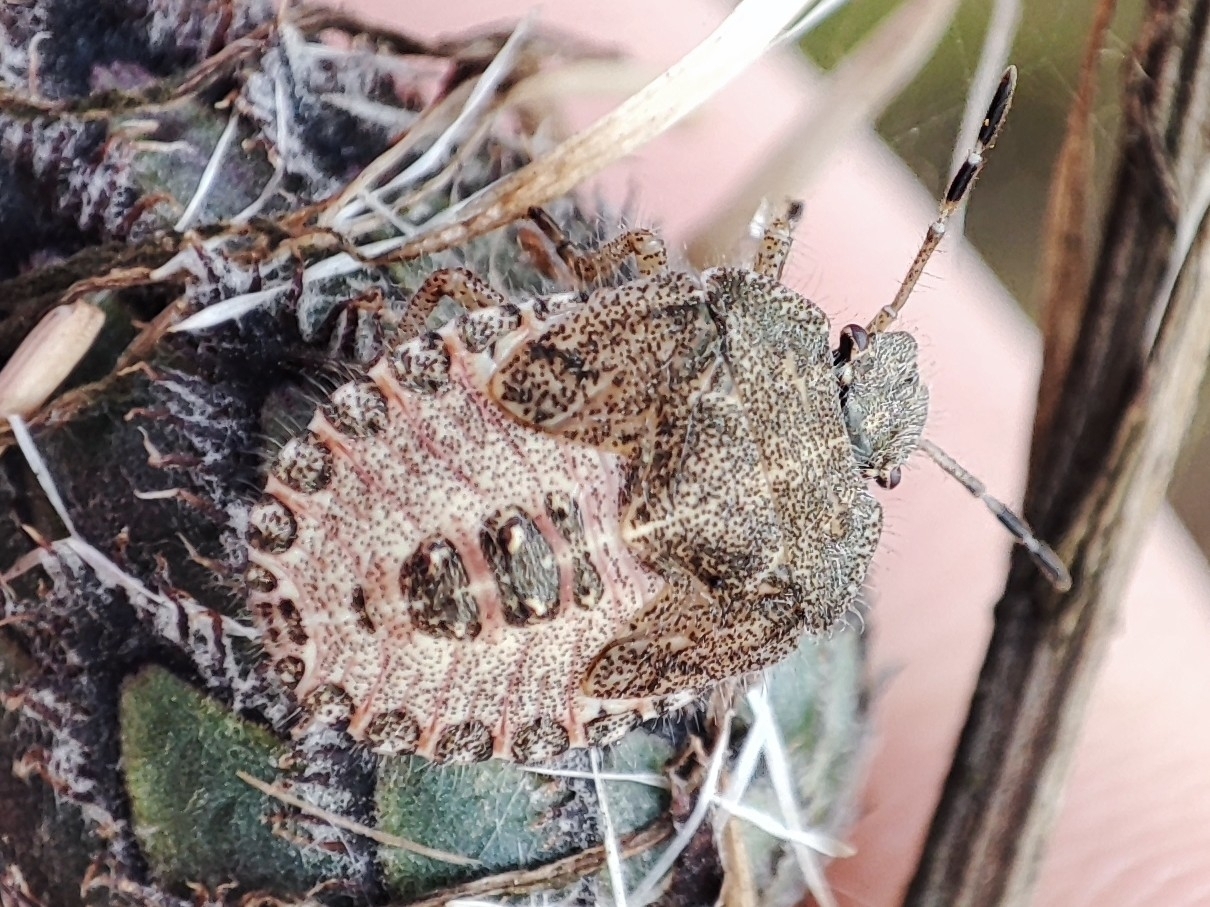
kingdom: Animalia
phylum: Arthropoda
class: Insecta
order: Hemiptera
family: Pentatomidae
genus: Dolycoris
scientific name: Dolycoris baccarum
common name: Sloe bug
